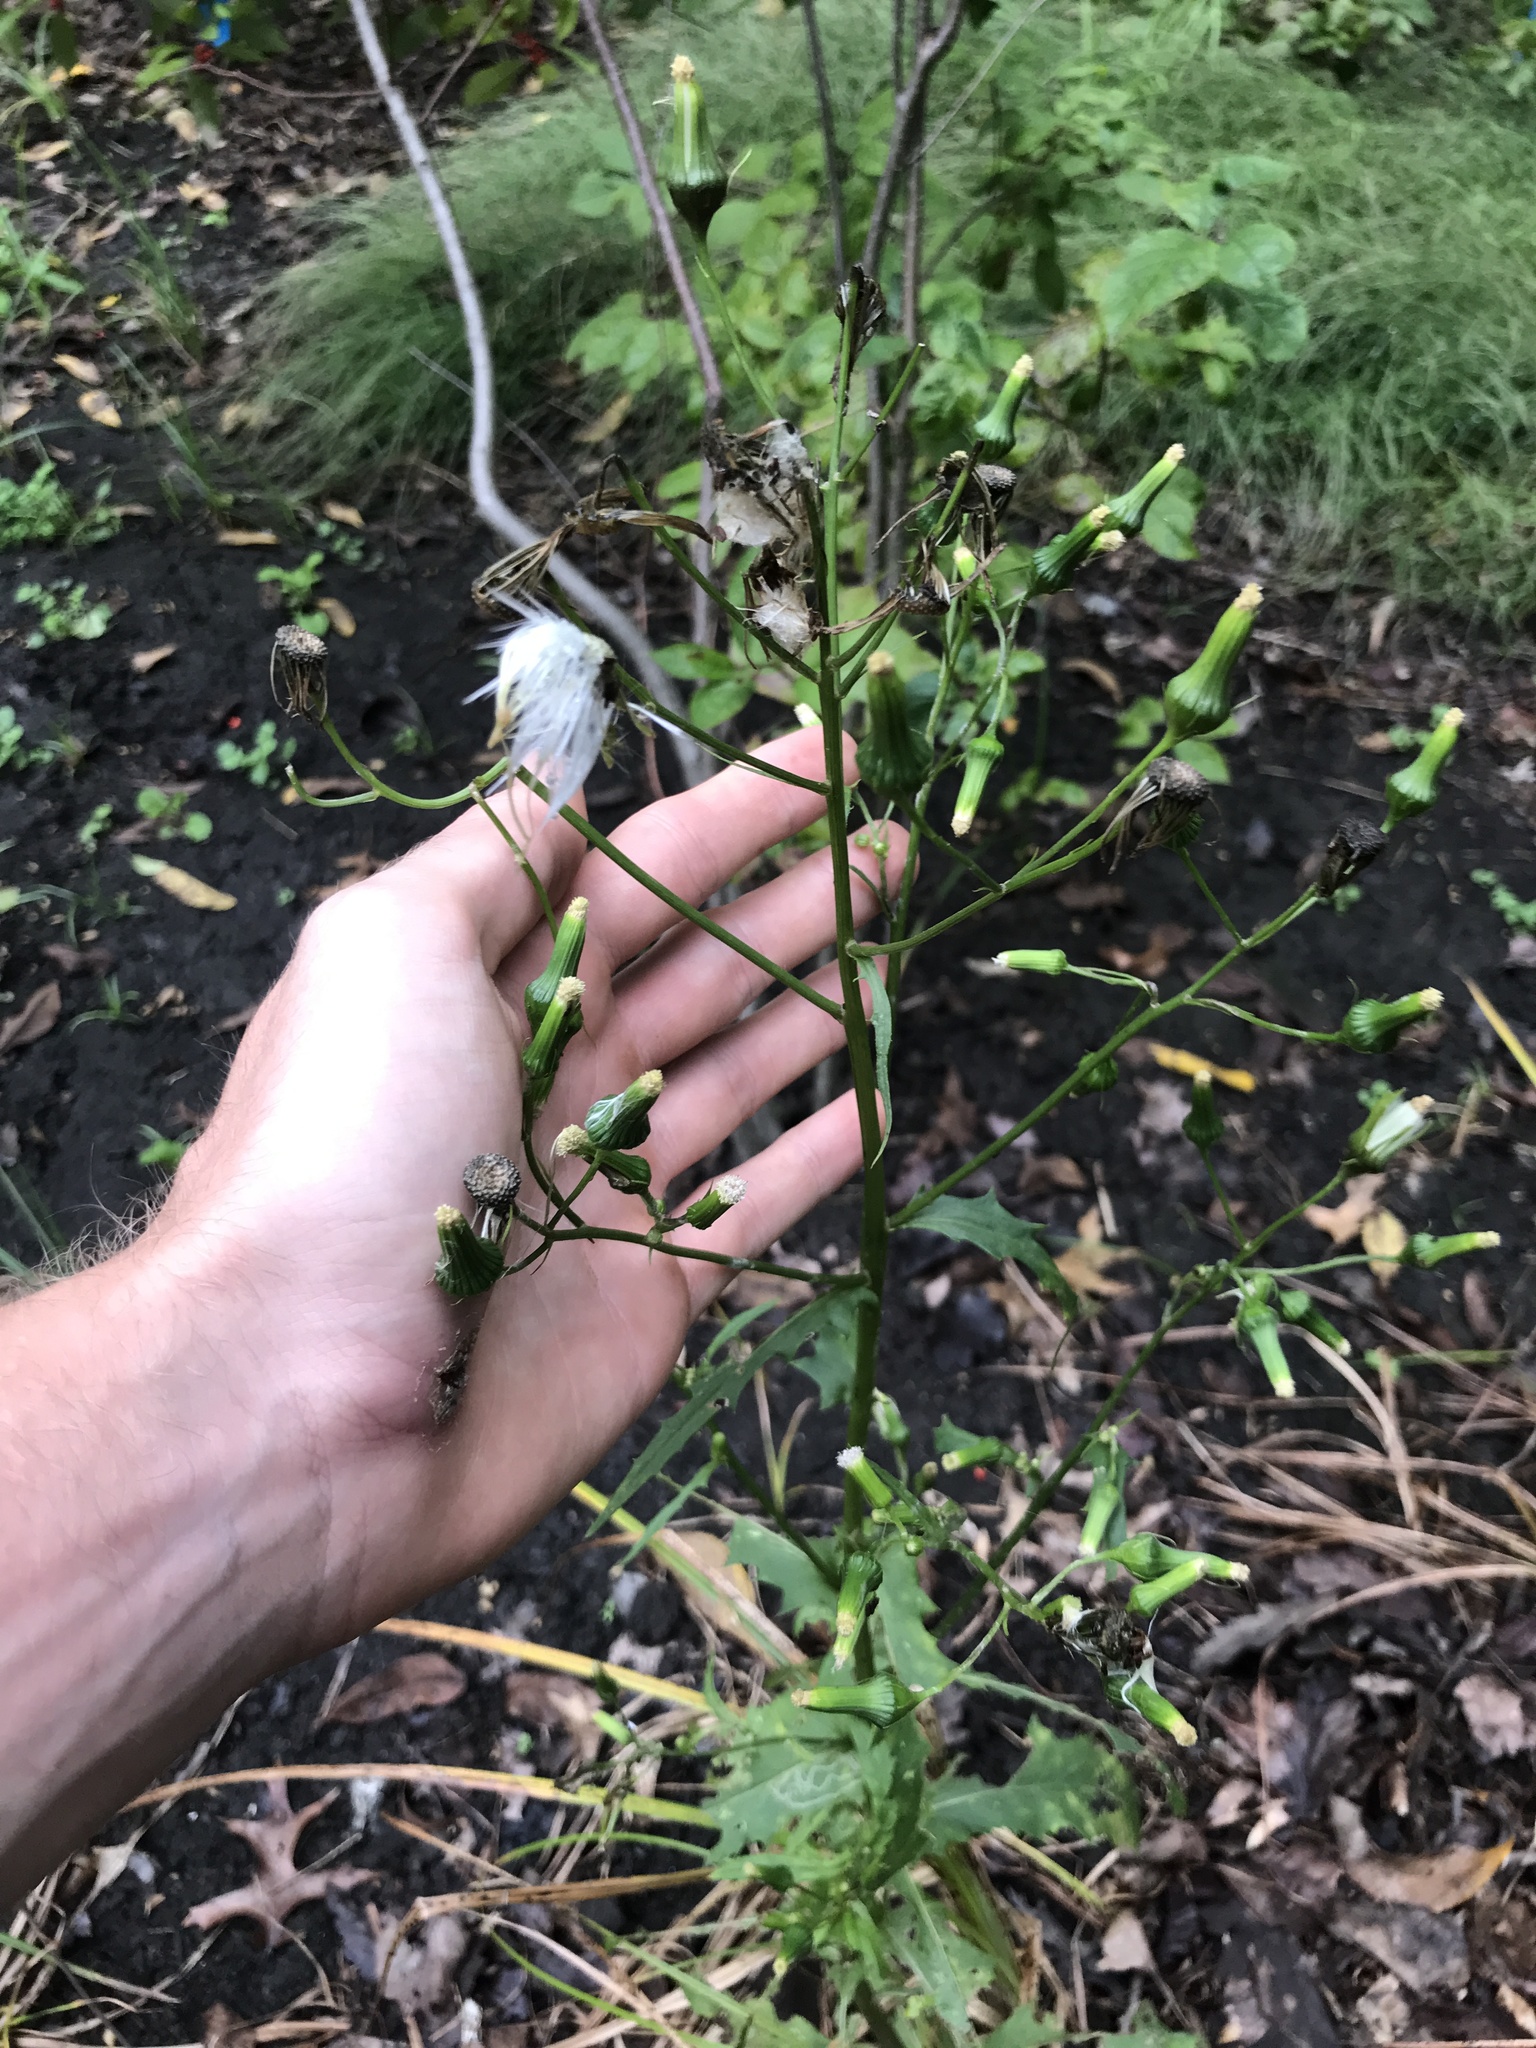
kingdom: Plantae
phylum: Tracheophyta
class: Magnoliopsida
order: Asterales
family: Asteraceae
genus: Erechtites
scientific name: Erechtites hieraciifolius
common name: American burnweed
